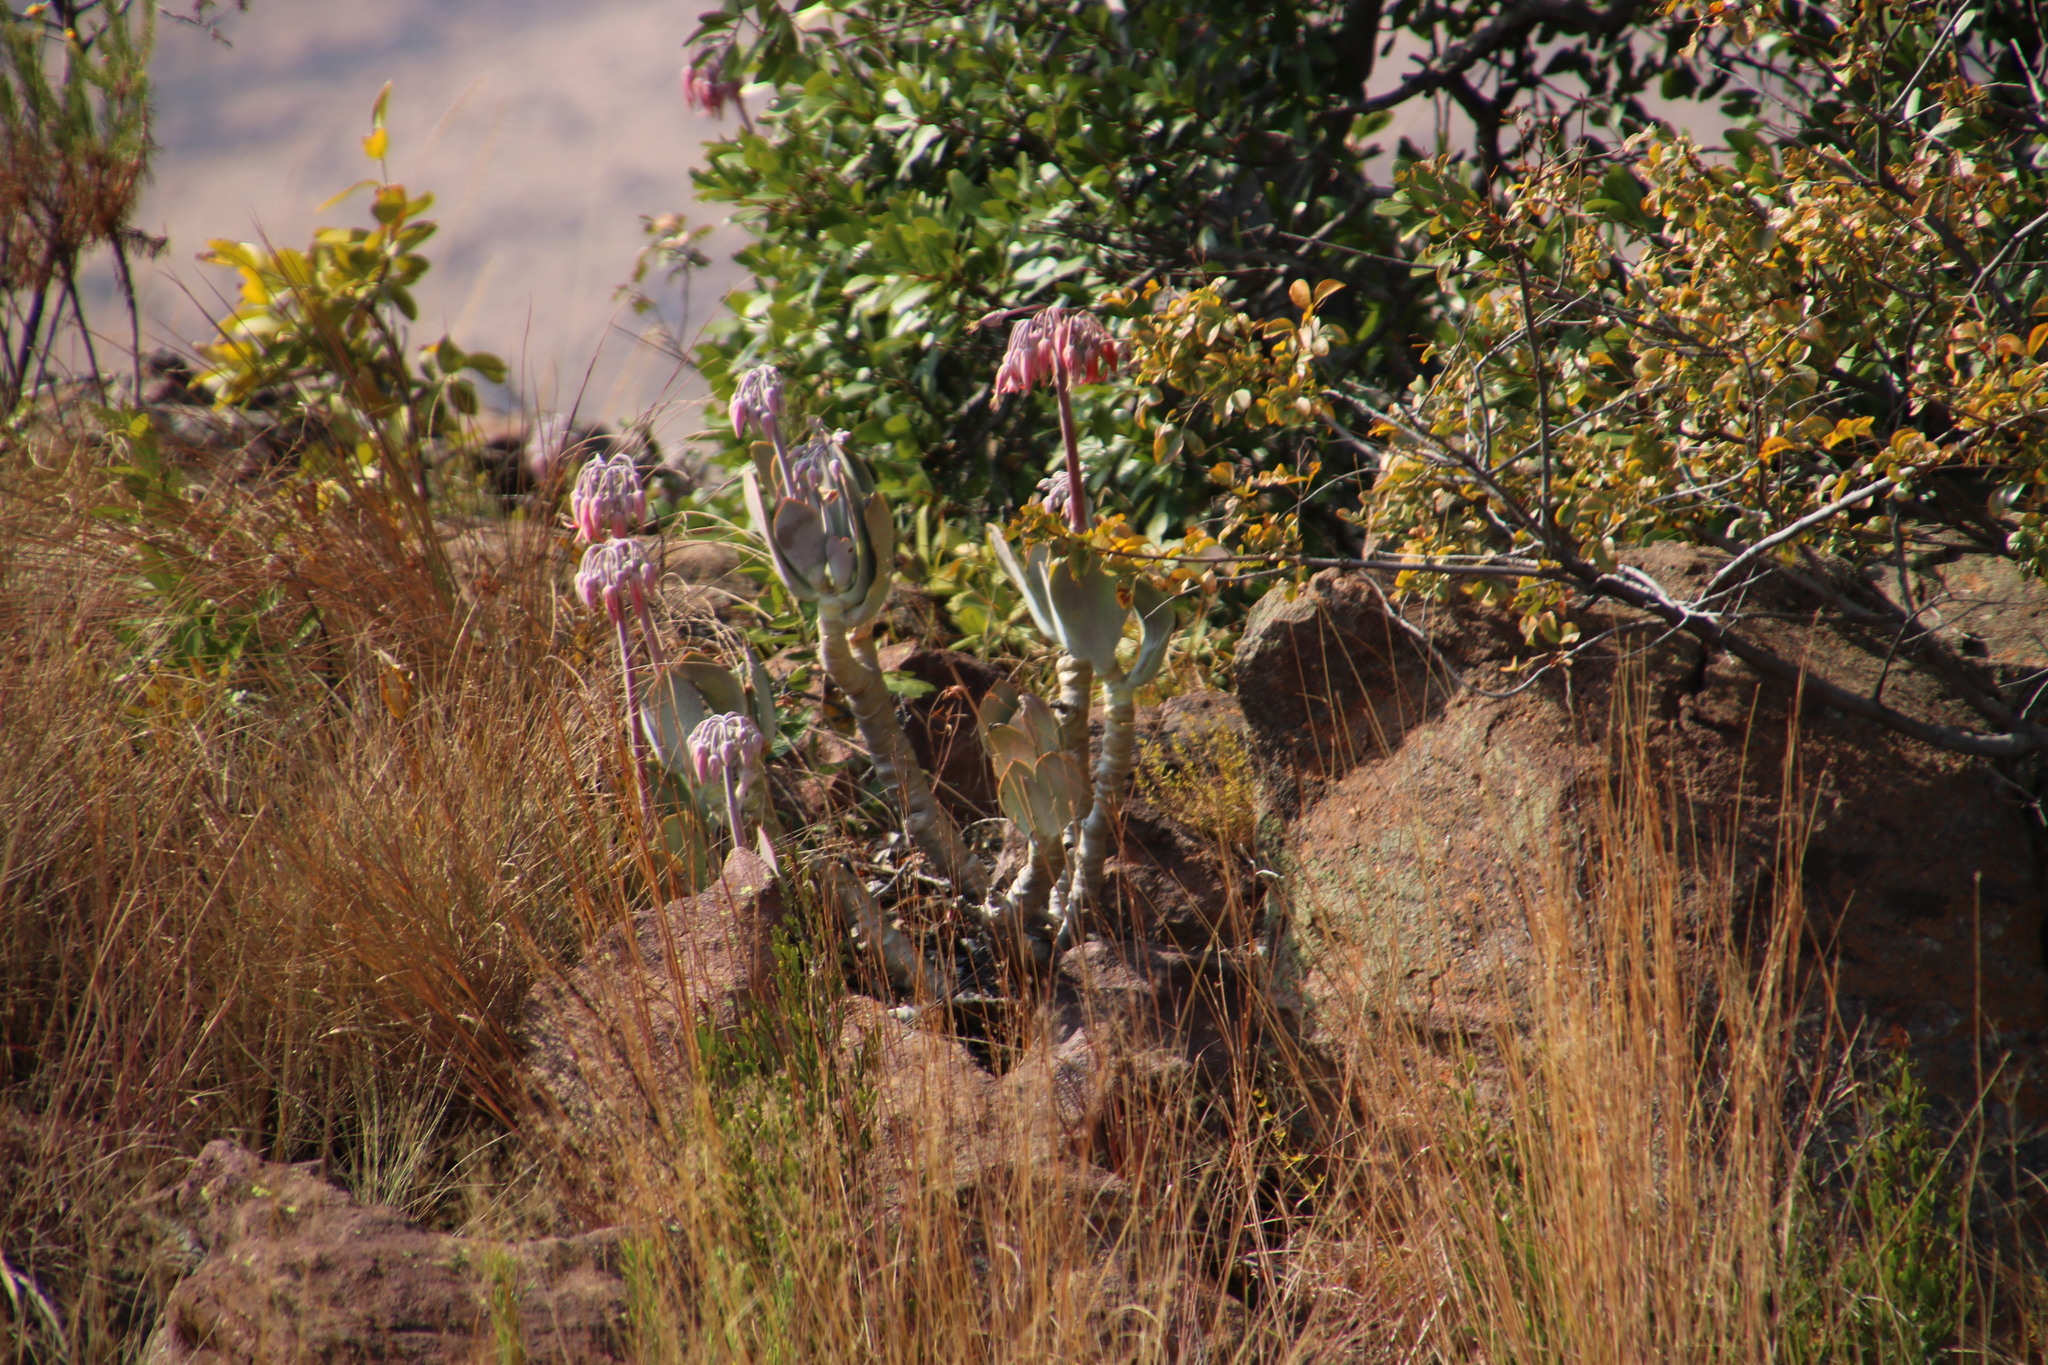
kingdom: Plantae
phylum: Tracheophyta
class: Magnoliopsida
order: Saxifragales
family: Crassulaceae
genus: Cotyledon
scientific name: Cotyledon orbiculata
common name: Pig's ear
